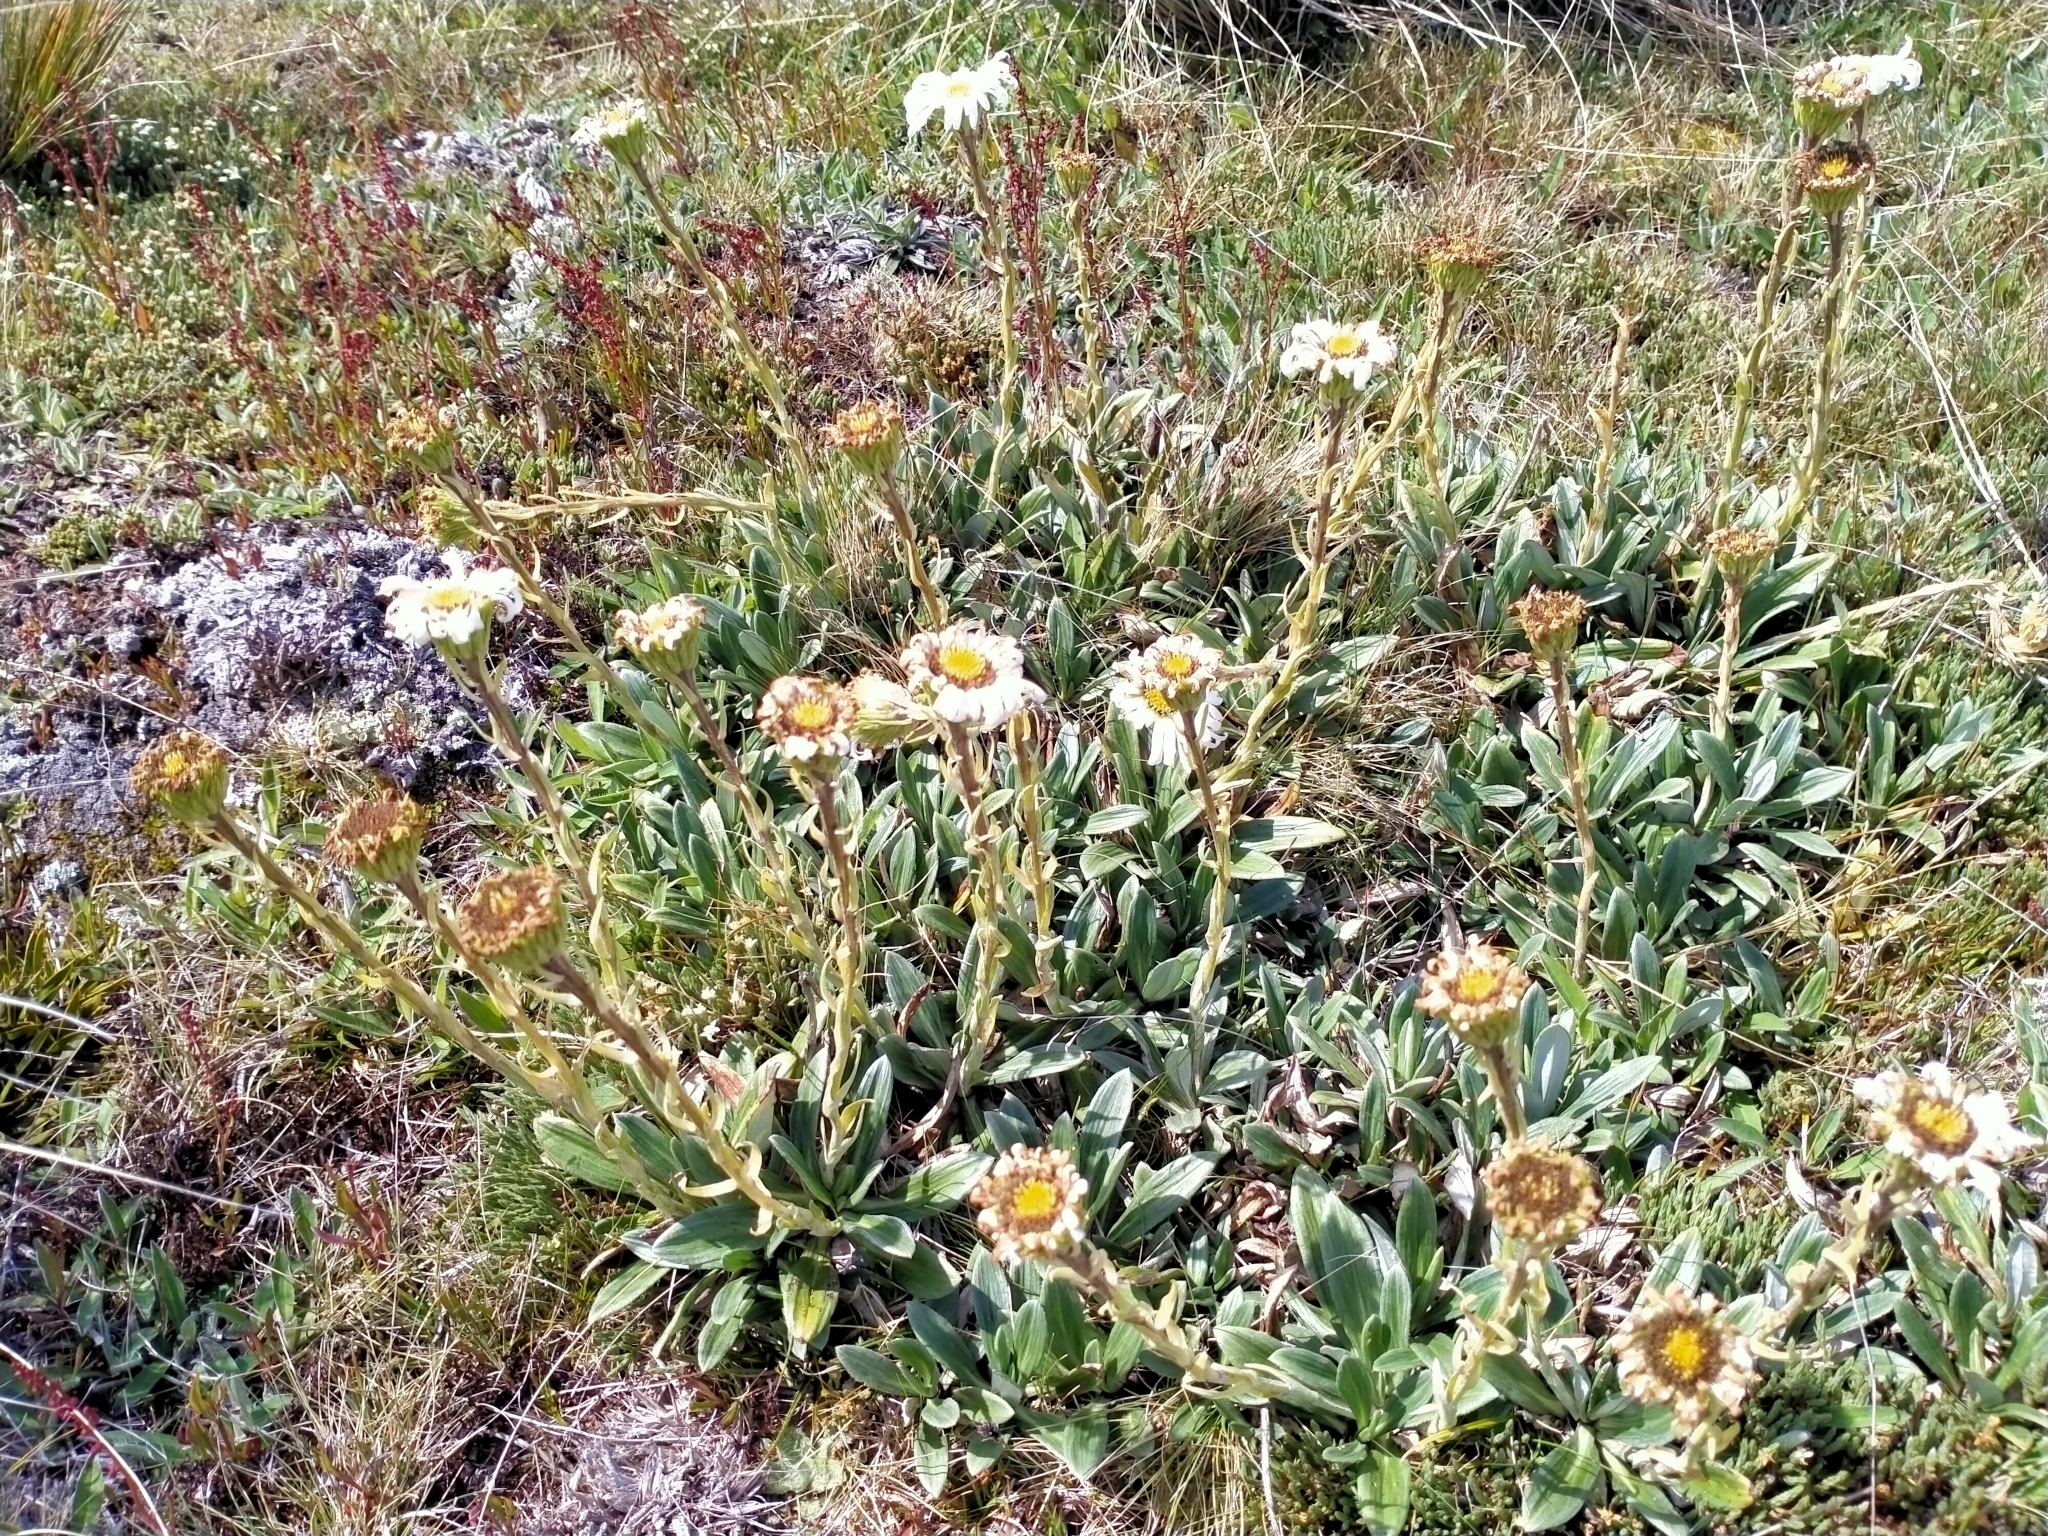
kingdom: Plantae
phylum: Tracheophyta
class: Magnoliopsida
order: Asterales
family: Asteraceae
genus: Celmisia
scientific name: Celmisia haastii
